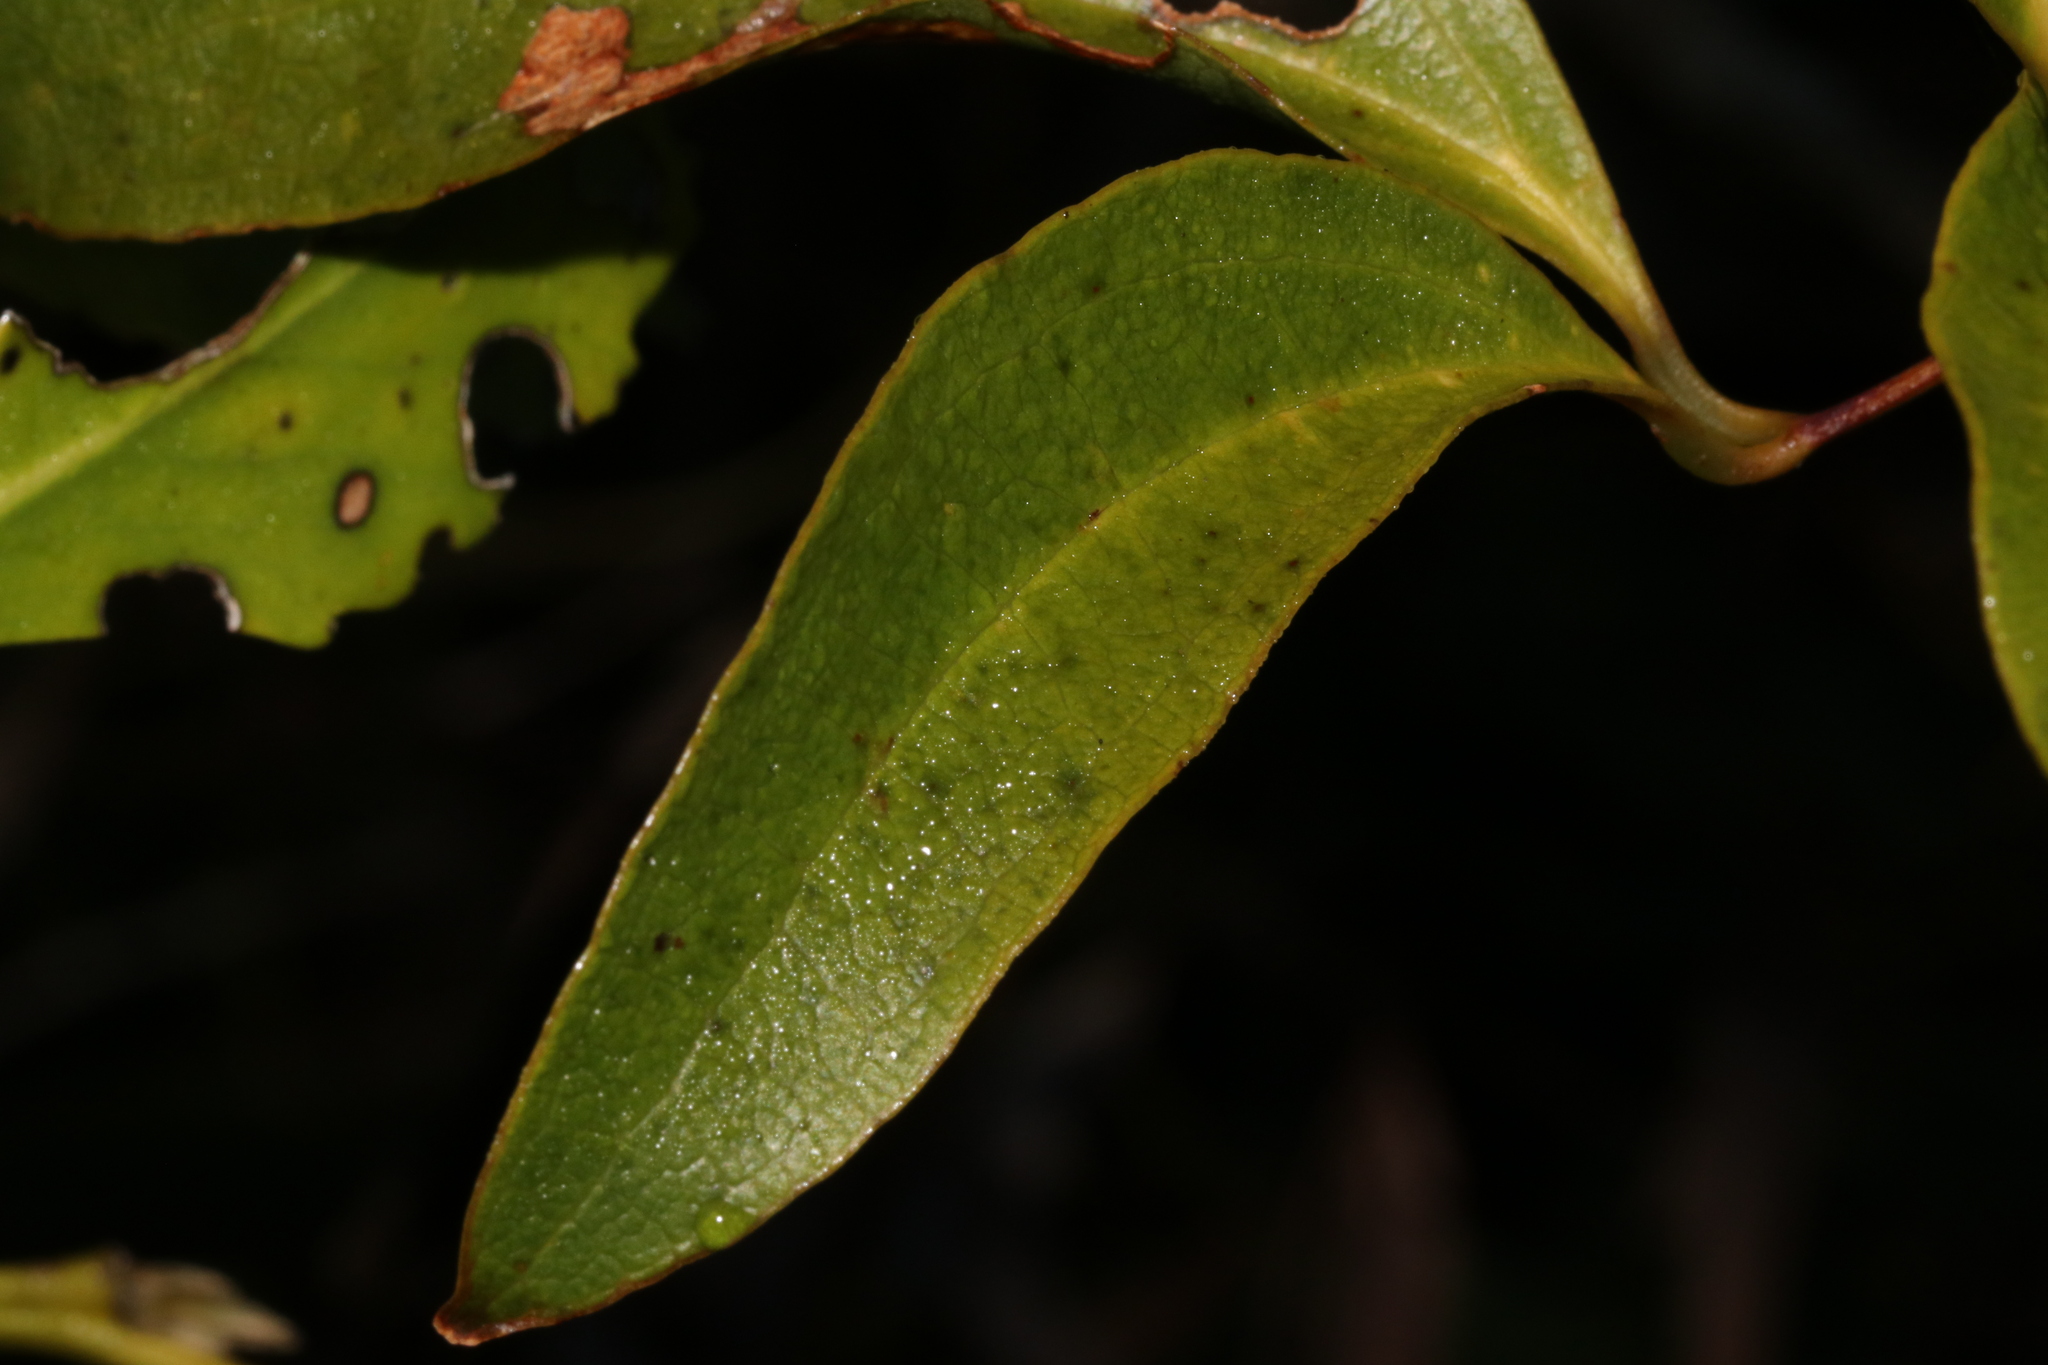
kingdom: Plantae
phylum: Tracheophyta
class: Liliopsida
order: Liliales
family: Ripogonaceae
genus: Ripogonum
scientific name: Ripogonum scandens
